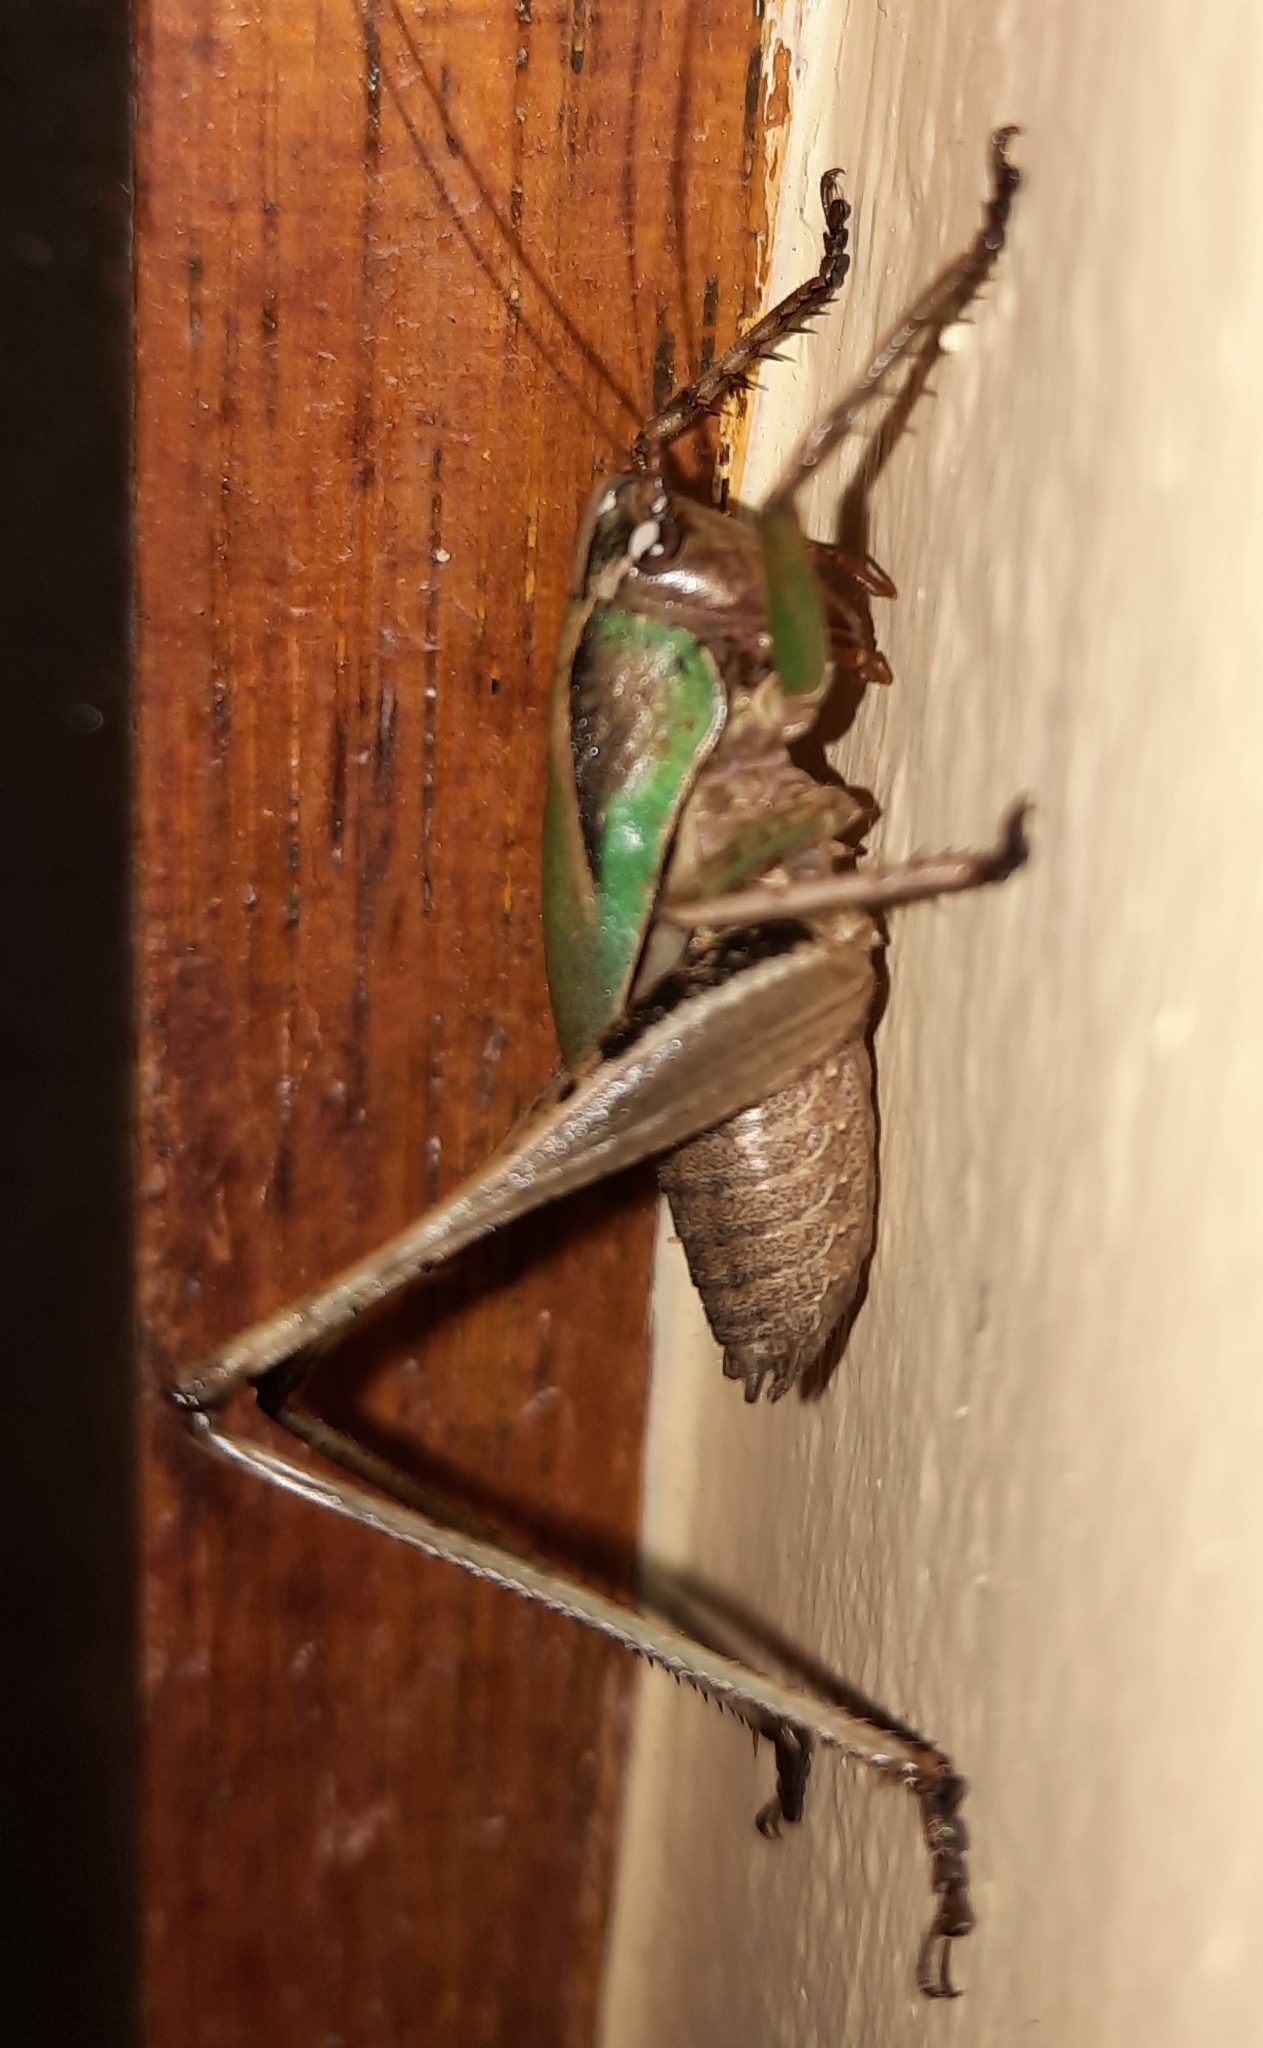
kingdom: Animalia
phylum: Arthropoda
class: Insecta
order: Orthoptera
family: Tettigoniidae
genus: Alfredectes
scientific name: Alfredectes semiaeneus
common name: Alfred's shieldback
